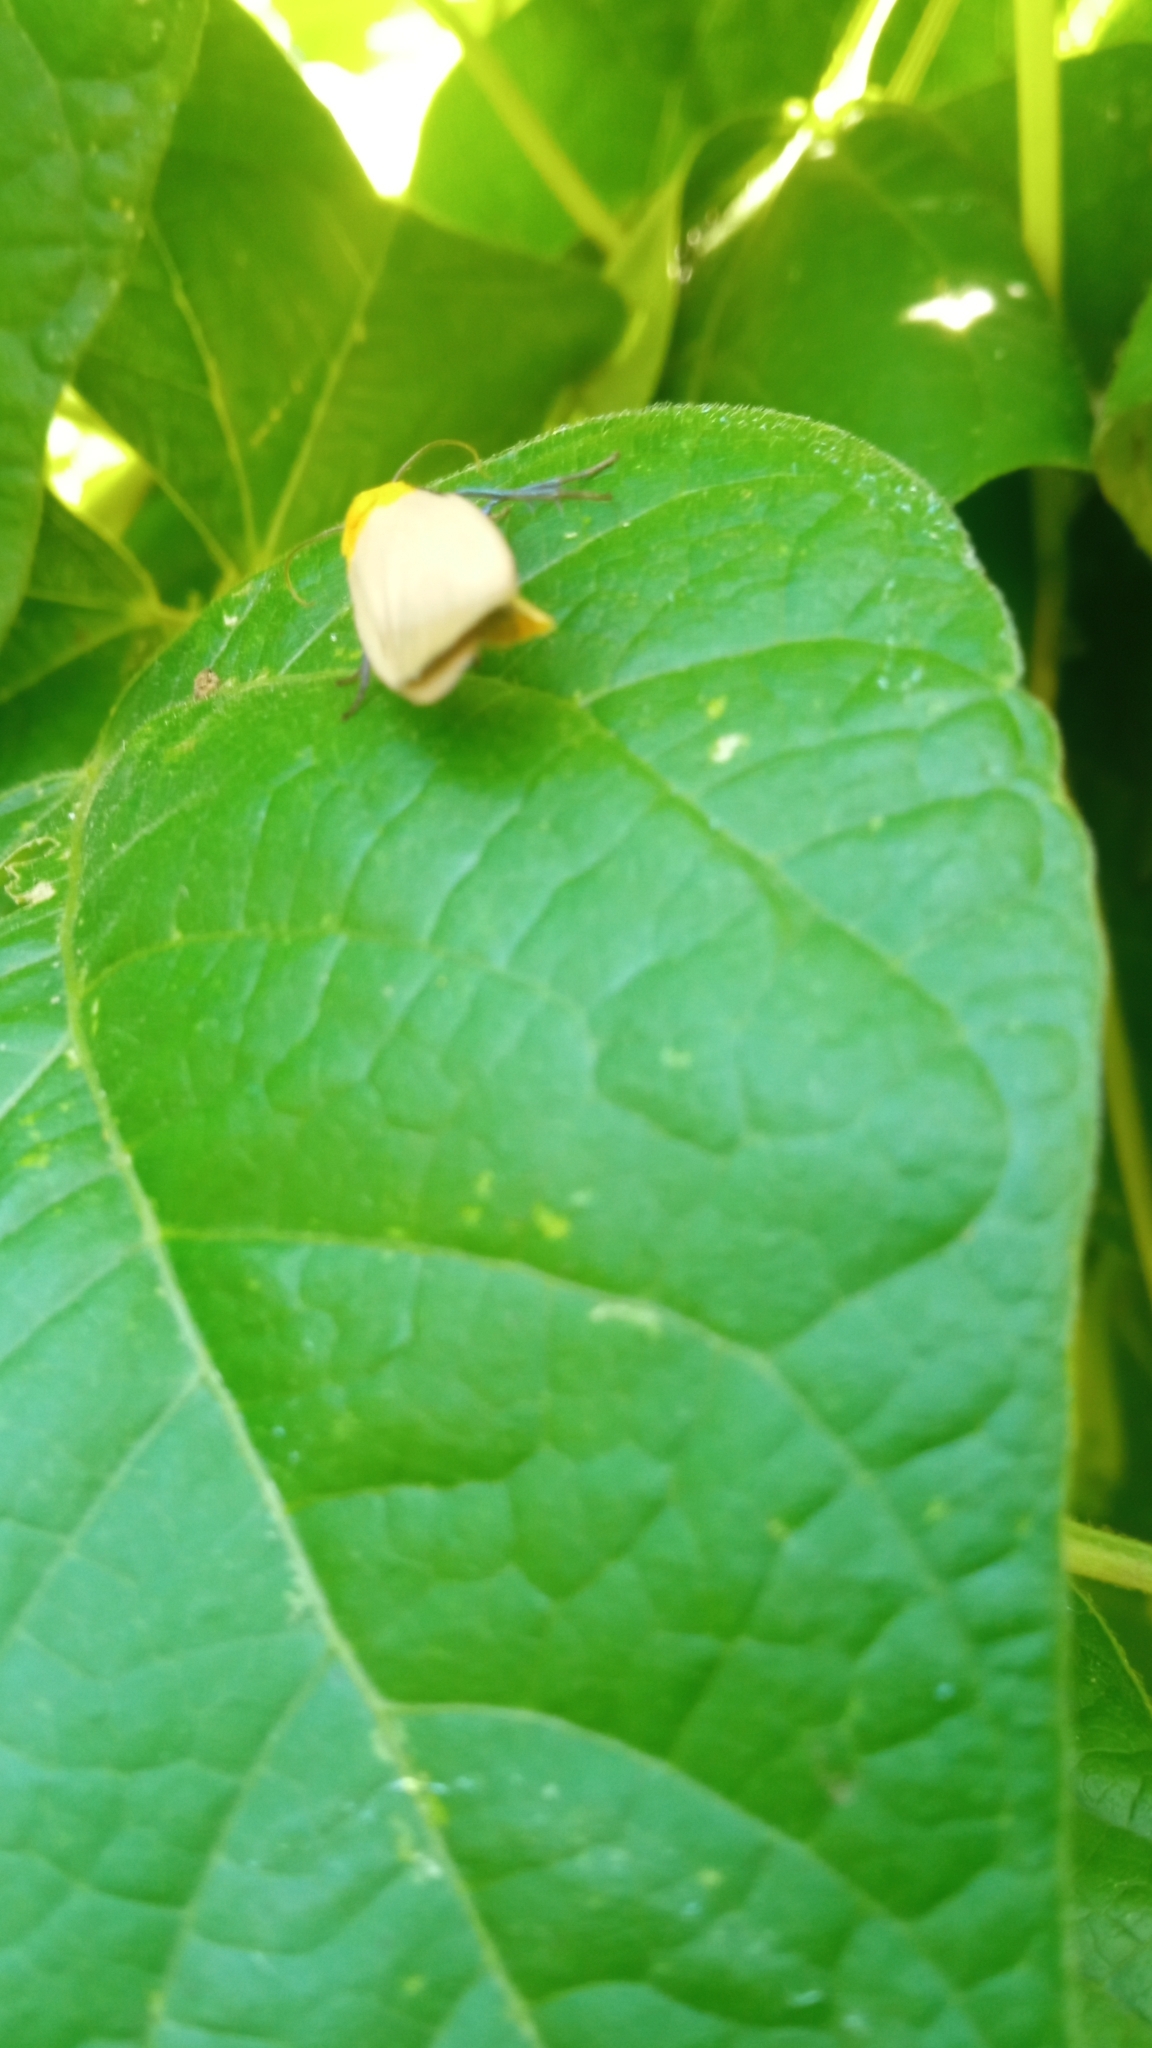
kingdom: Animalia
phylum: Arthropoda
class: Insecta
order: Lepidoptera
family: Erebidae
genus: Lithosia
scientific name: Lithosia quadra
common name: Four-spotted footman
